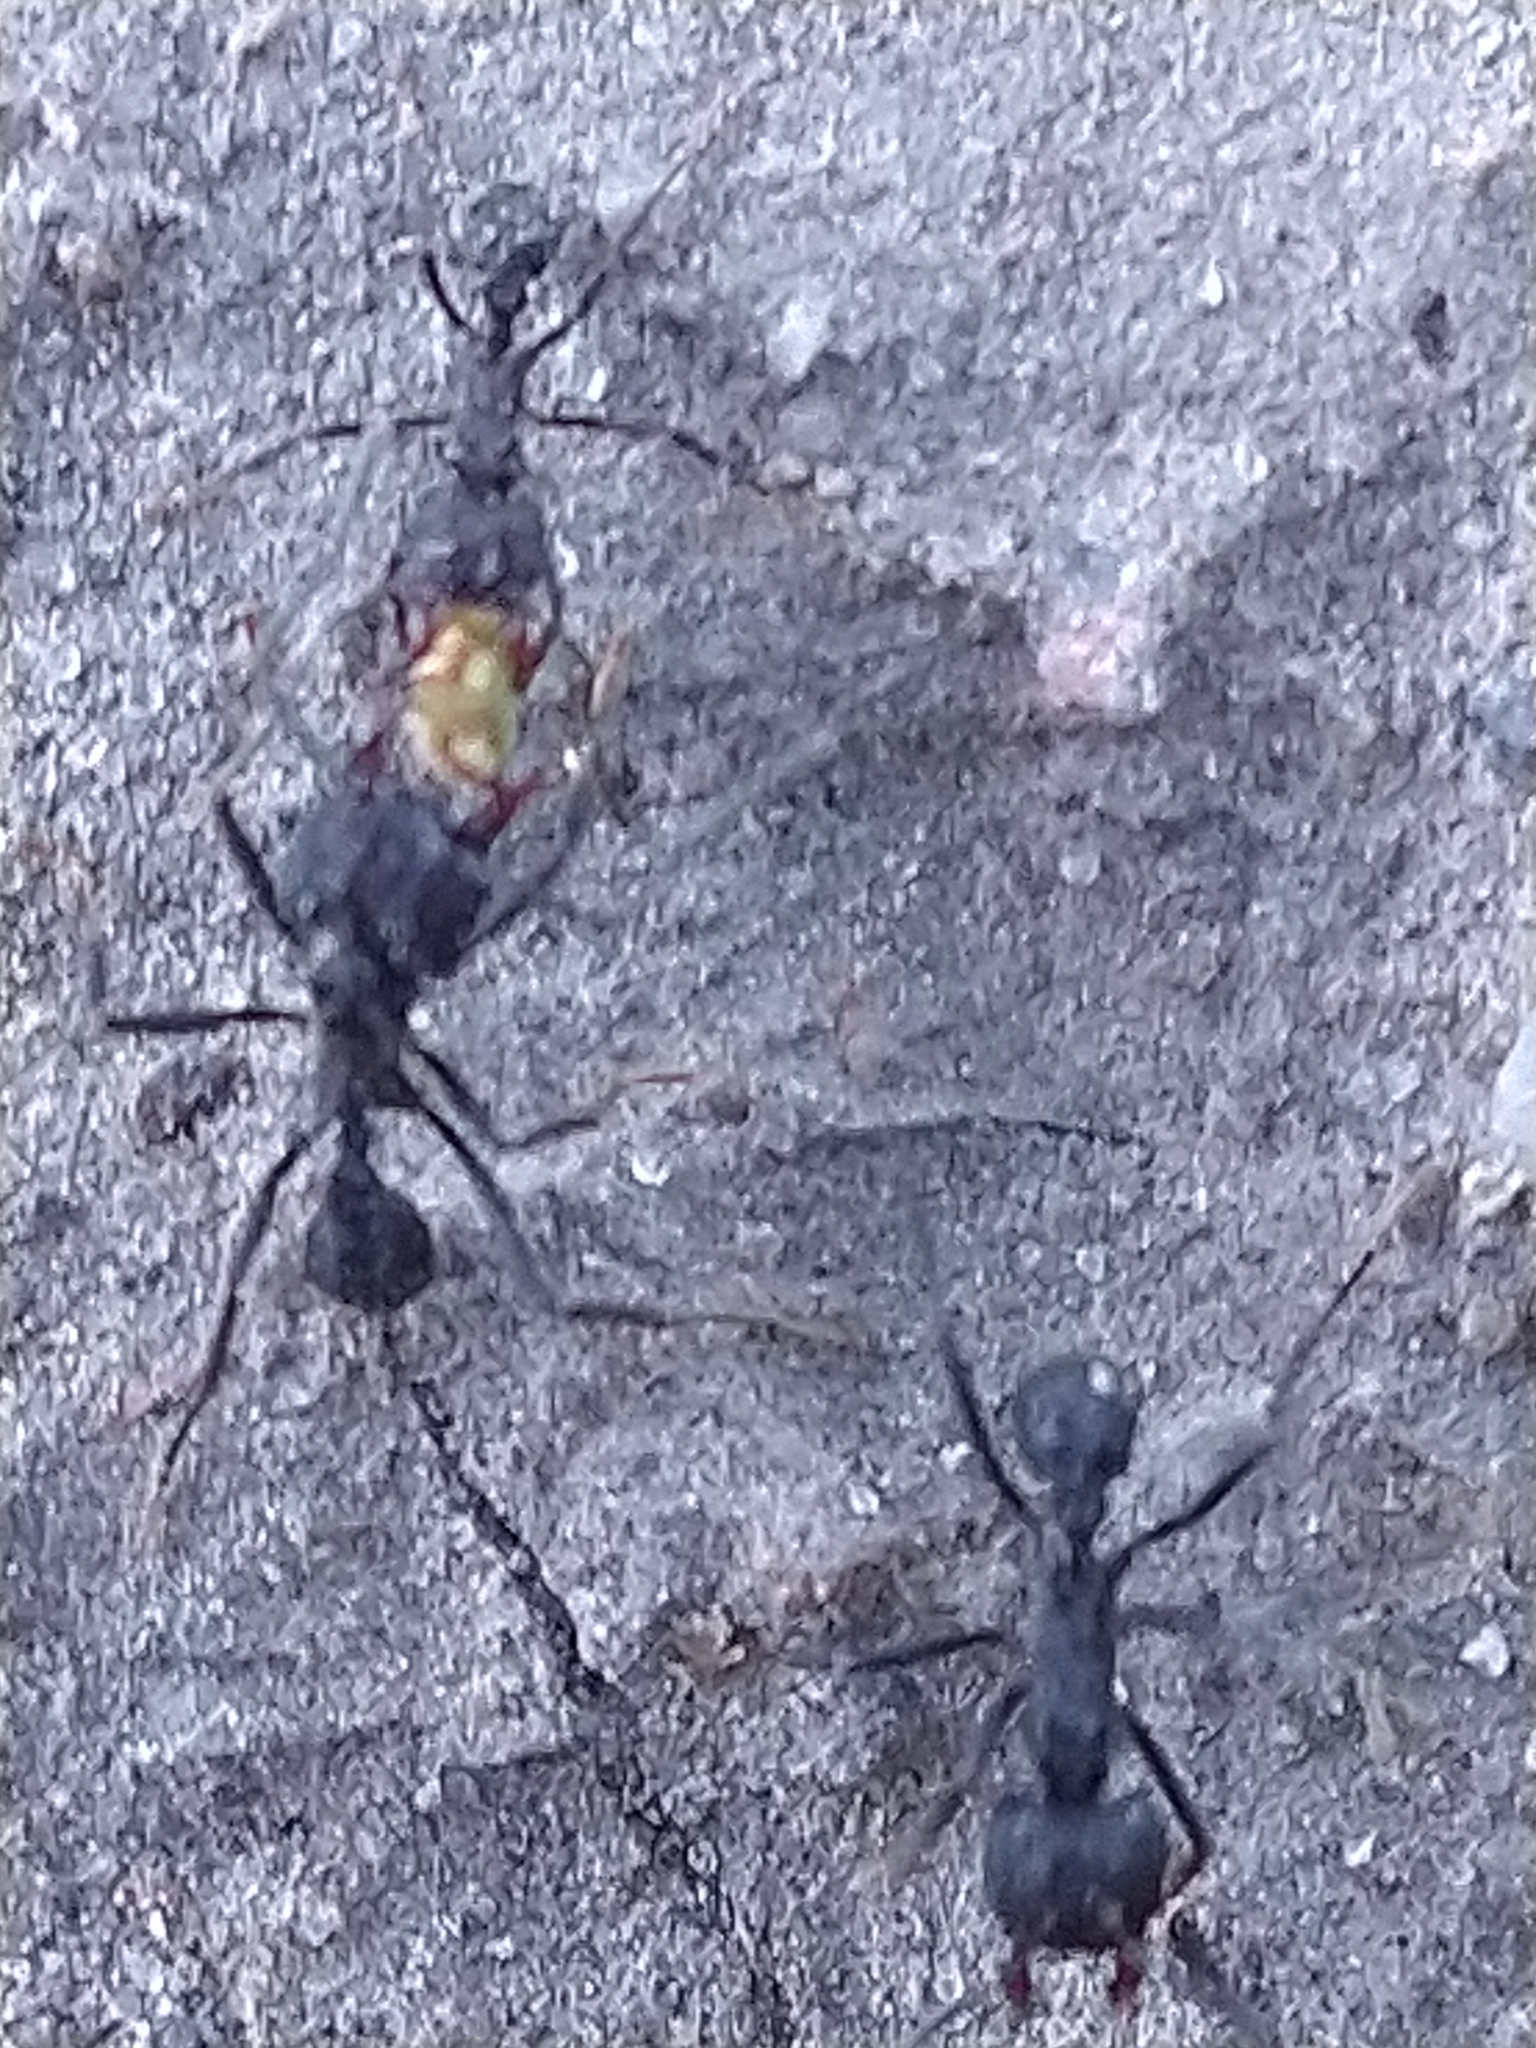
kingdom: Animalia
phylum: Arthropoda
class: Insecta
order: Hymenoptera
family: Formicidae
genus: Acromyrmex
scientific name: Acromyrmex
